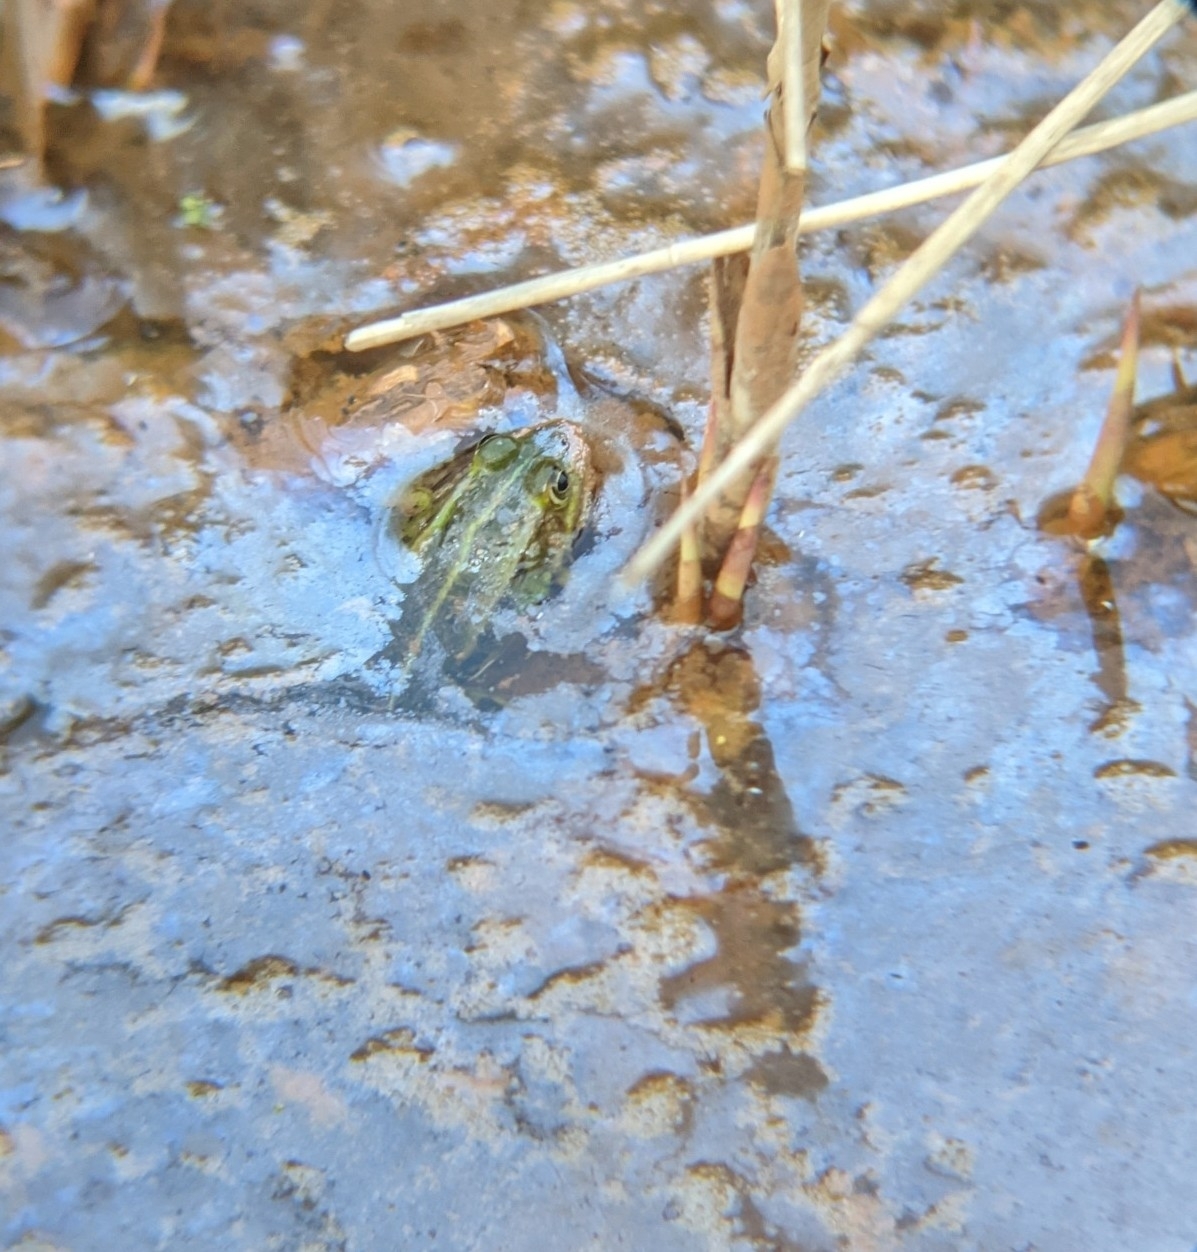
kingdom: Animalia
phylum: Chordata
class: Amphibia
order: Anura
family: Ranidae
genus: Pelophylax
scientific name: Pelophylax
